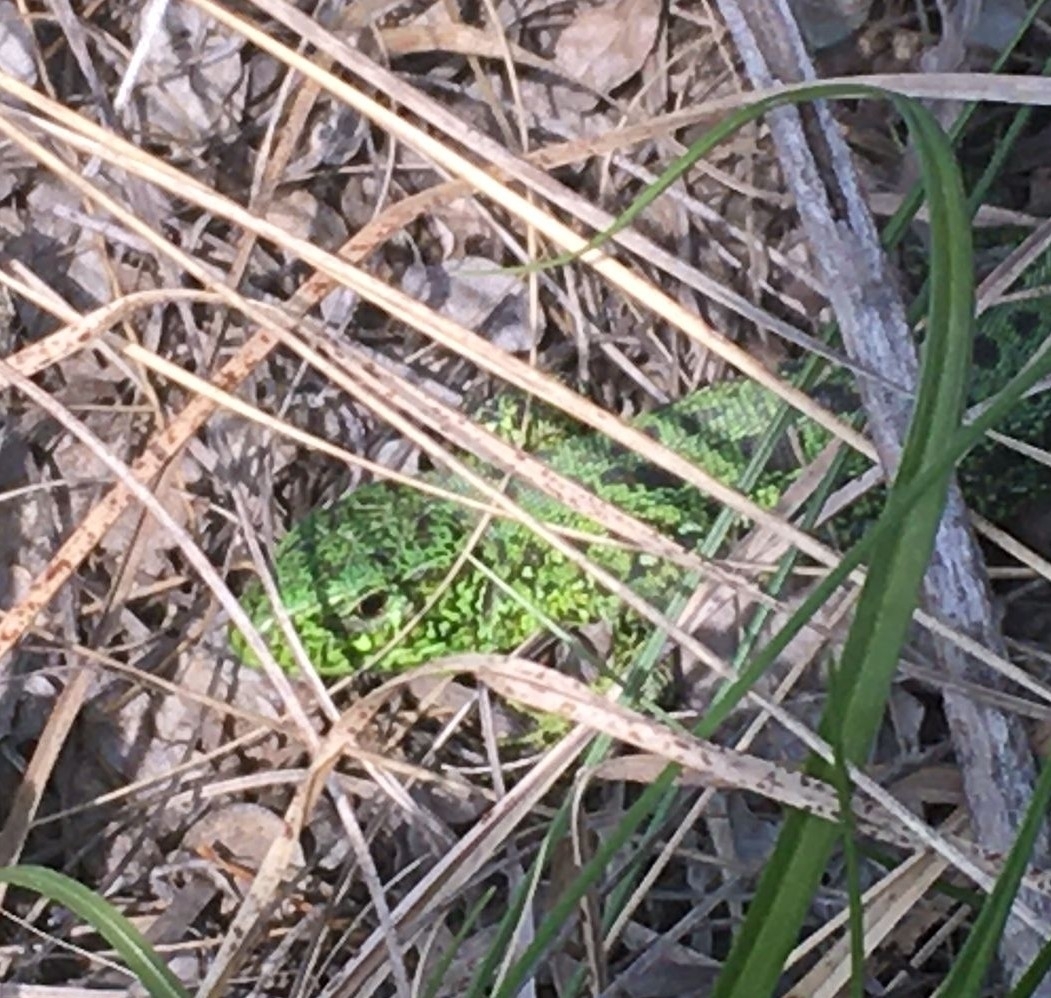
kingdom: Animalia
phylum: Chordata
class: Squamata
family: Lacertidae
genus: Lacerta
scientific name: Lacerta agilis
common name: Sand lizard
